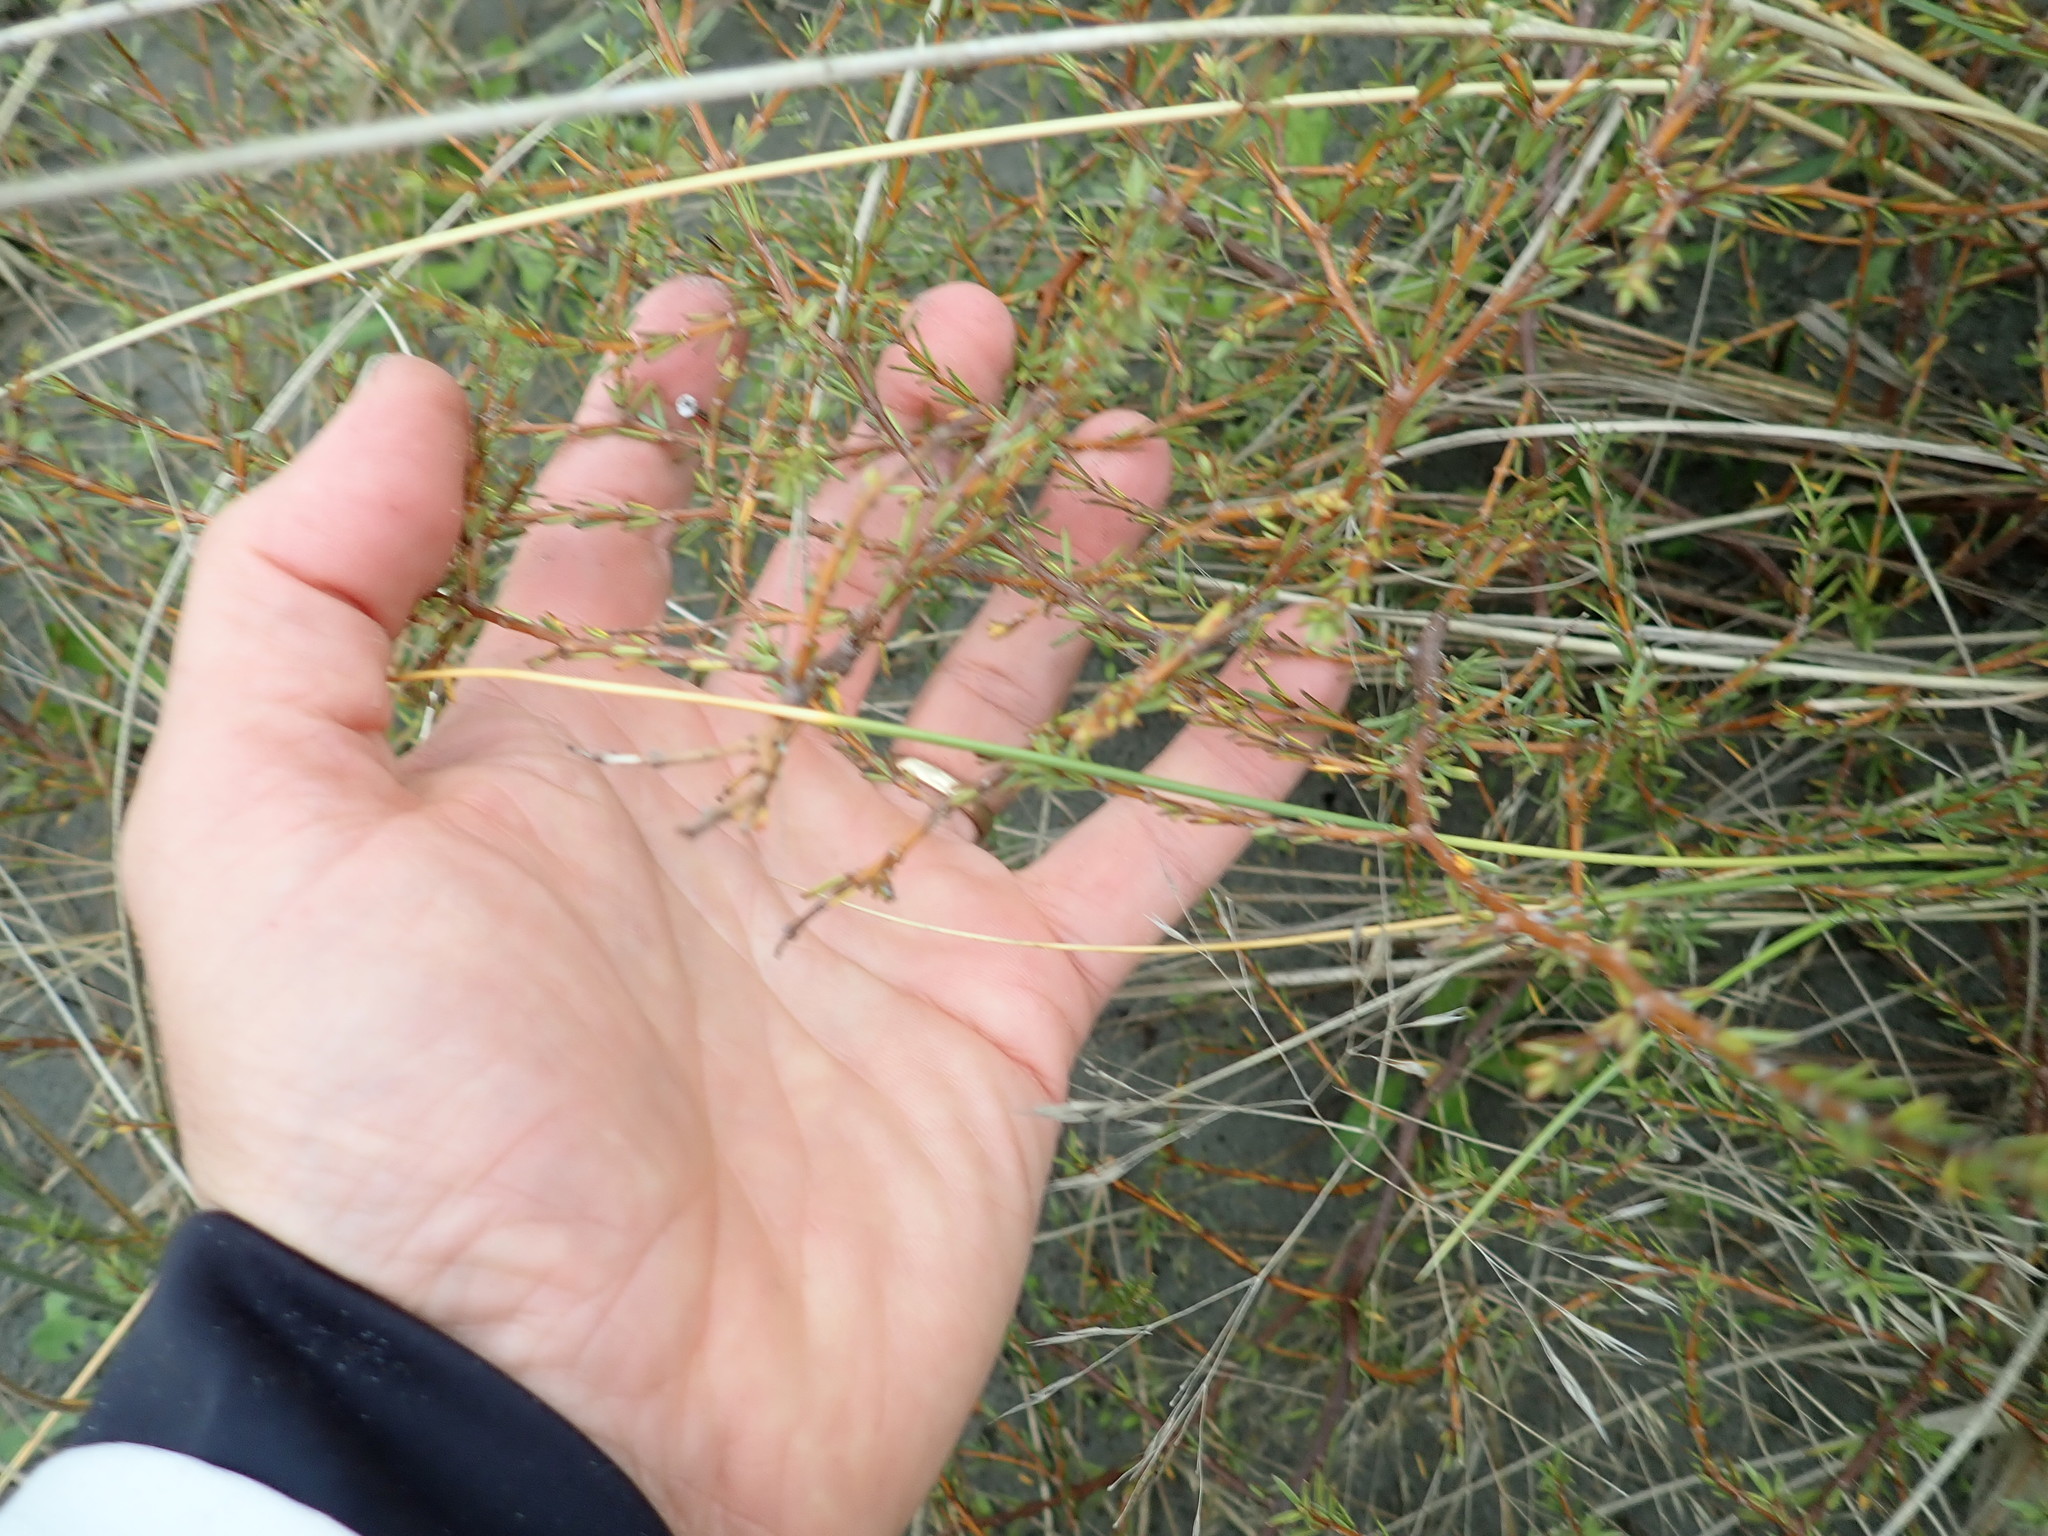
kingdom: Plantae
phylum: Tracheophyta
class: Magnoliopsida
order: Gentianales
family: Rubiaceae
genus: Coprosma
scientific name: Coprosma acerosa
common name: Sand coprosma
